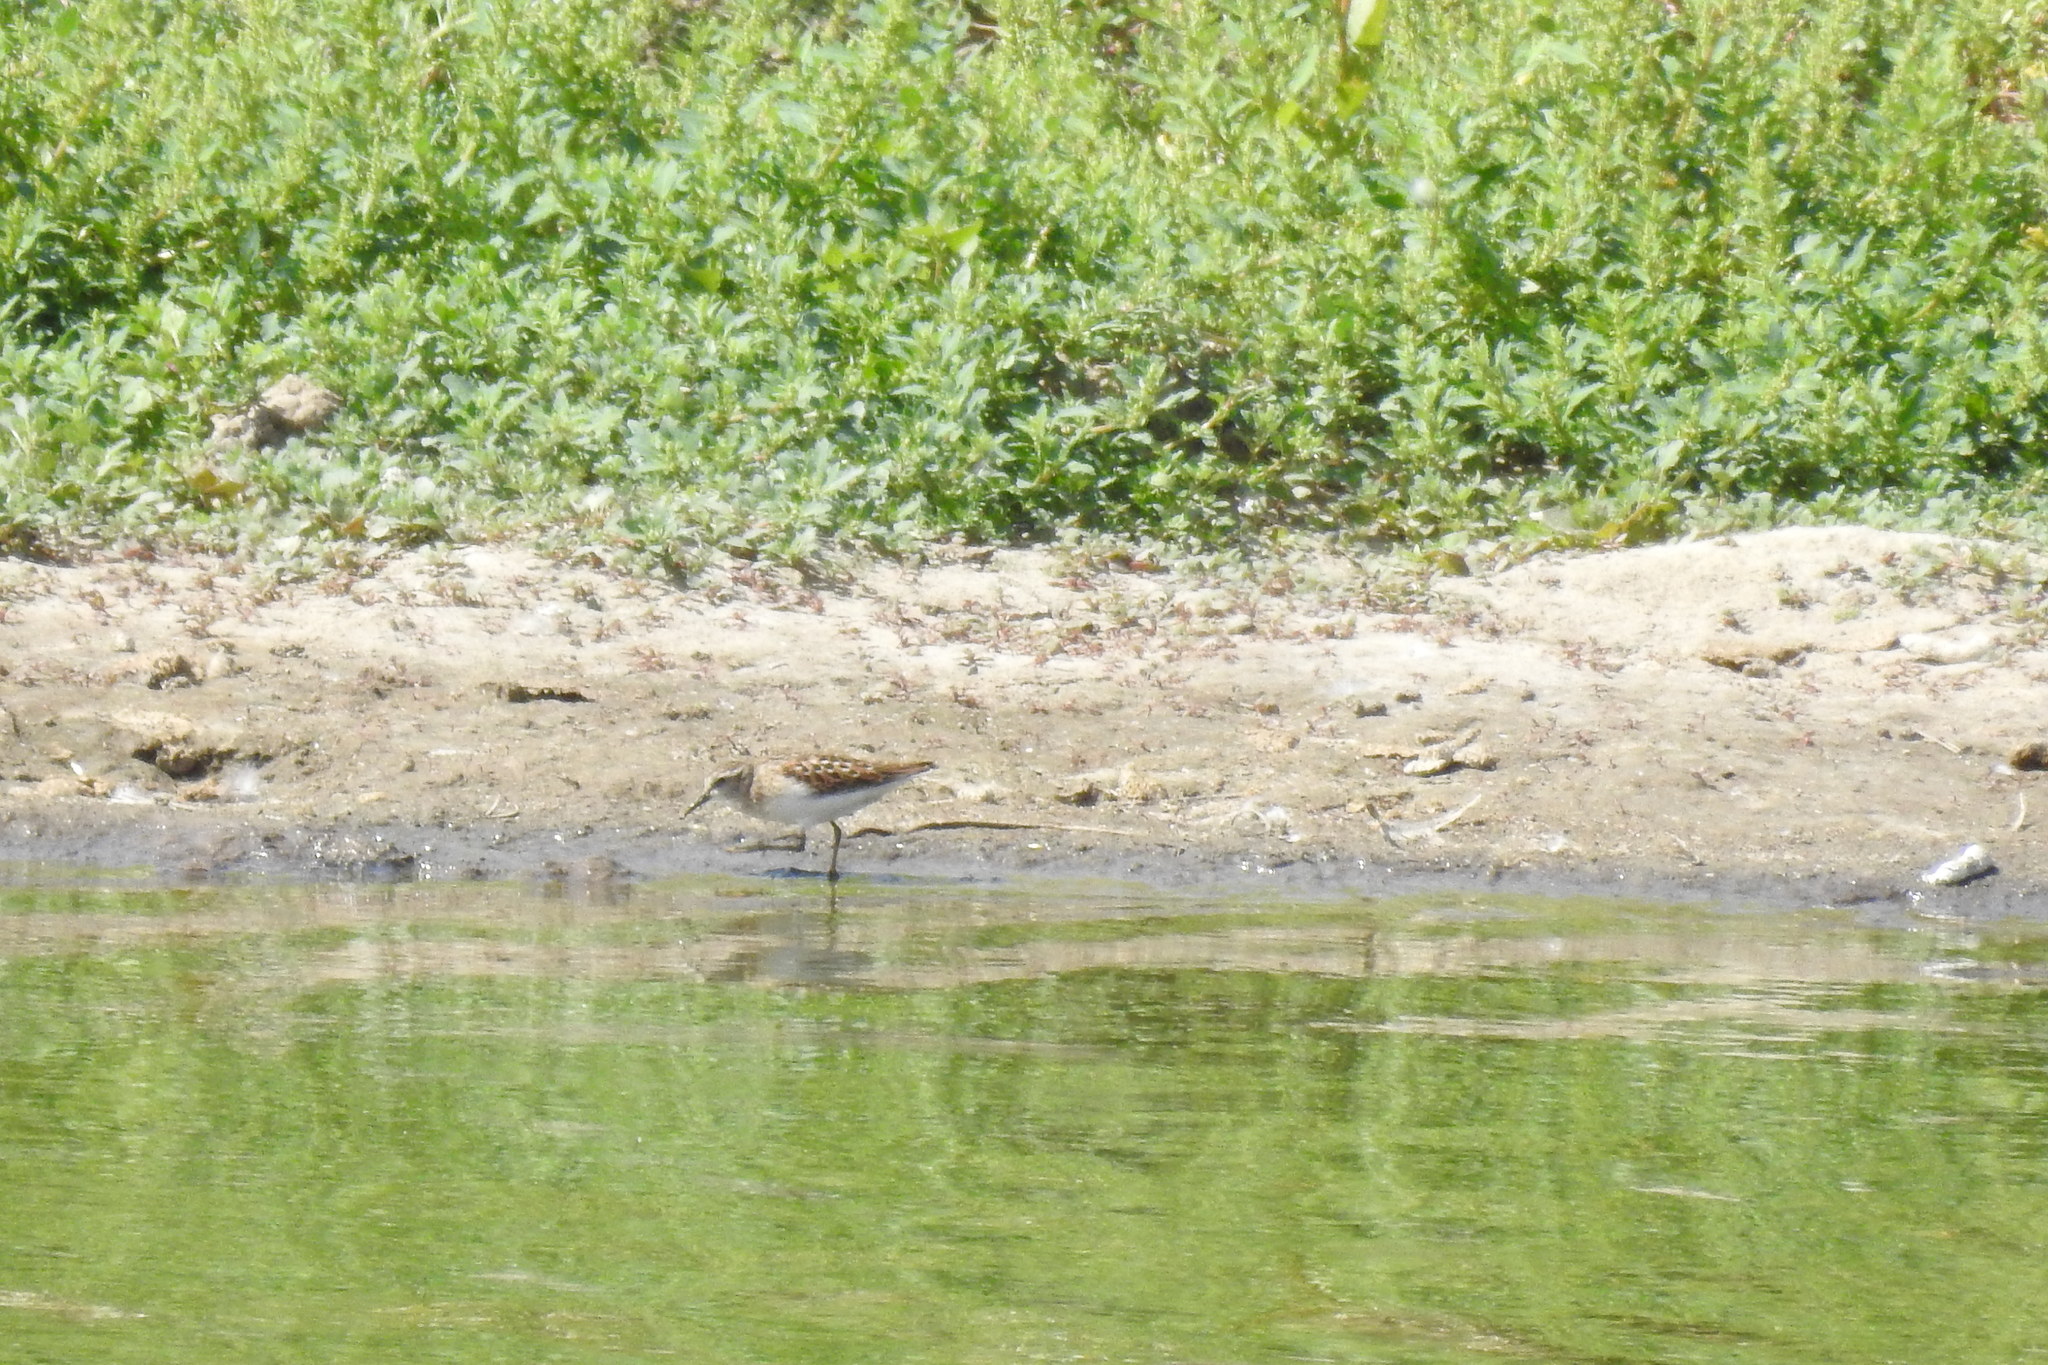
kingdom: Animalia
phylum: Chordata
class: Aves
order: Charadriiformes
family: Scolopacidae
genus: Calidris
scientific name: Calidris minutilla
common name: Least sandpiper
